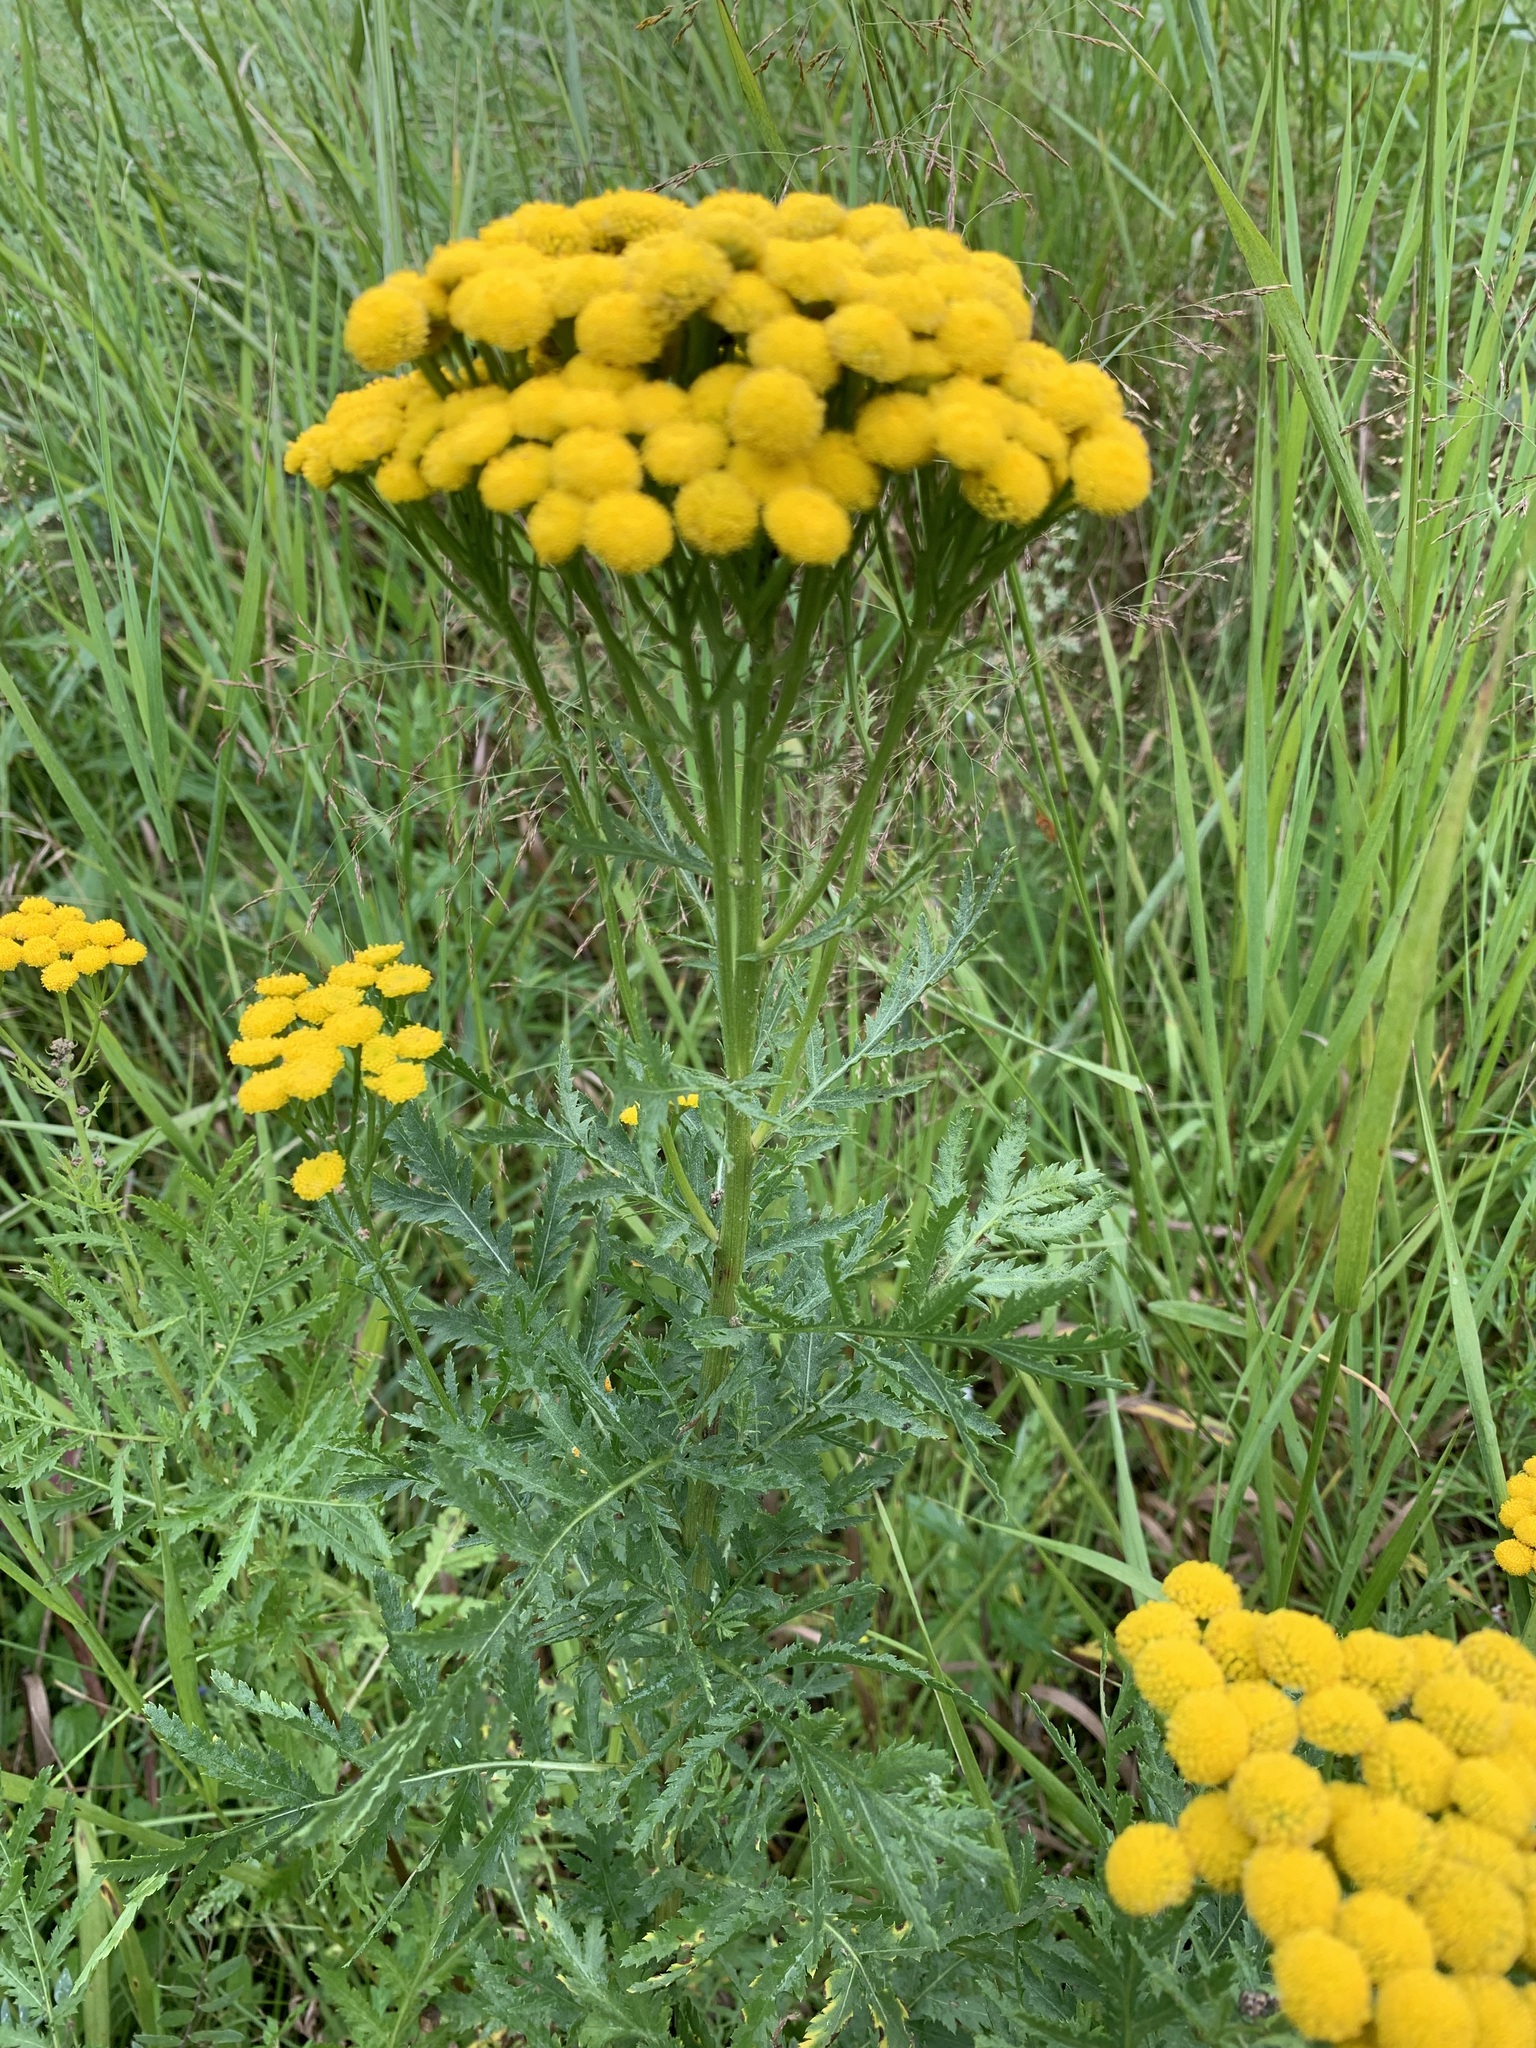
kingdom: Plantae
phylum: Tracheophyta
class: Magnoliopsida
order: Asterales
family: Asteraceae
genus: Tanacetum
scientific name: Tanacetum vulgare
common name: Common tansy
